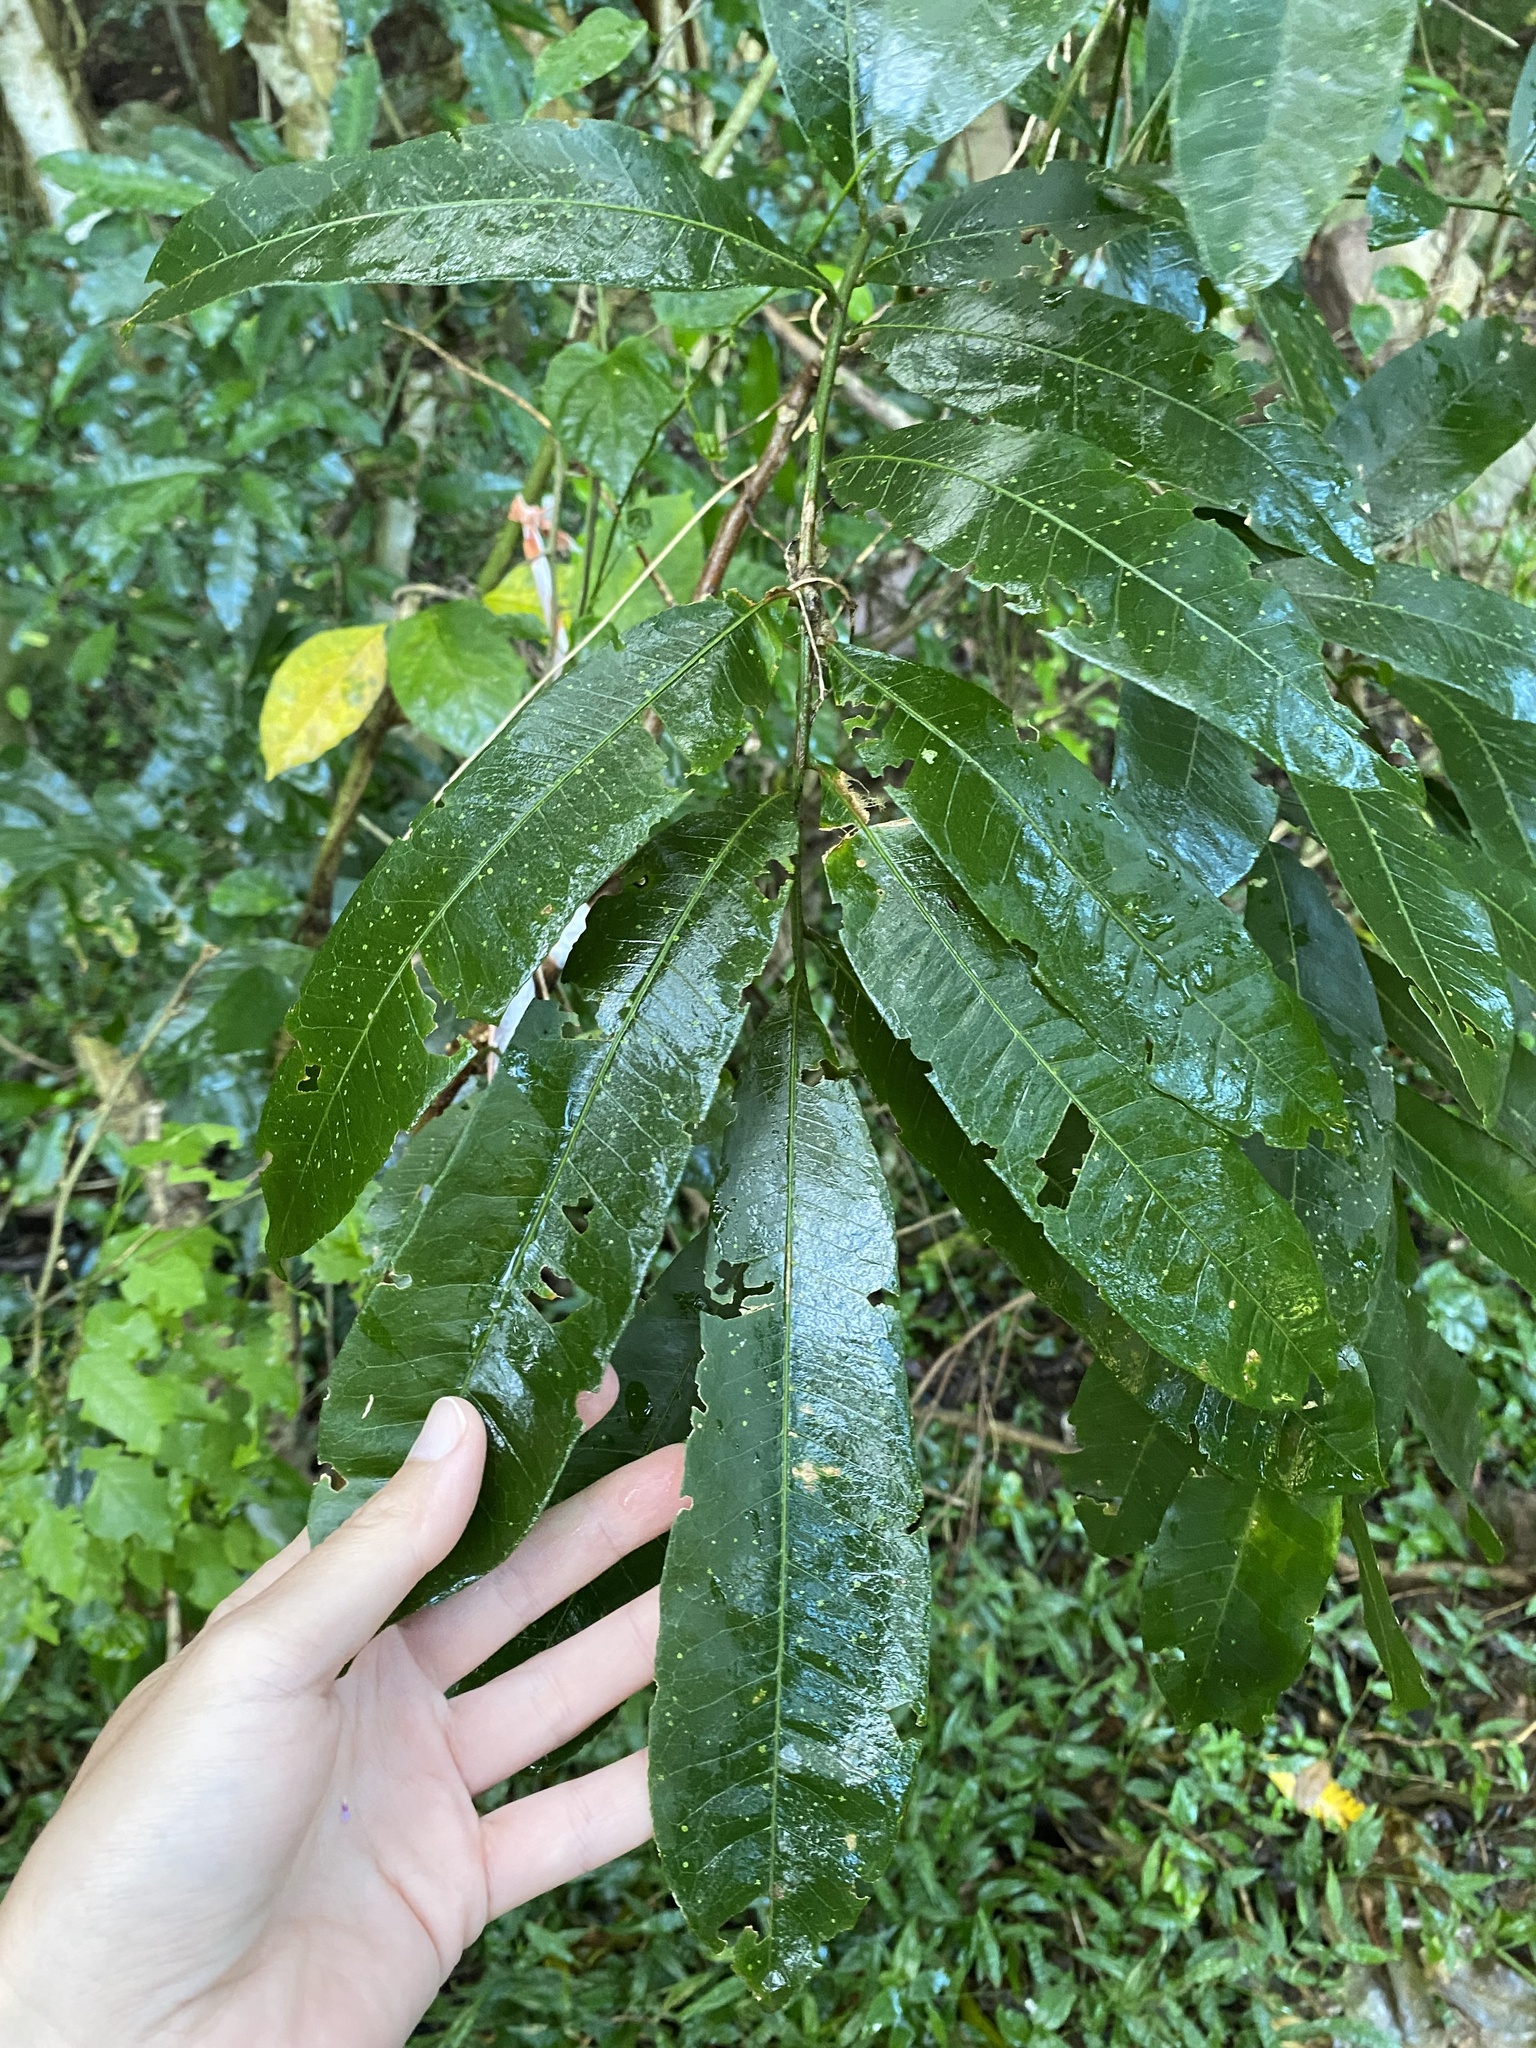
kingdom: Plantae
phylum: Tracheophyta
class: Magnoliopsida
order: Sapindales
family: Sapindaceae
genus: Deinbollia
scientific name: Deinbollia oblongifolia
